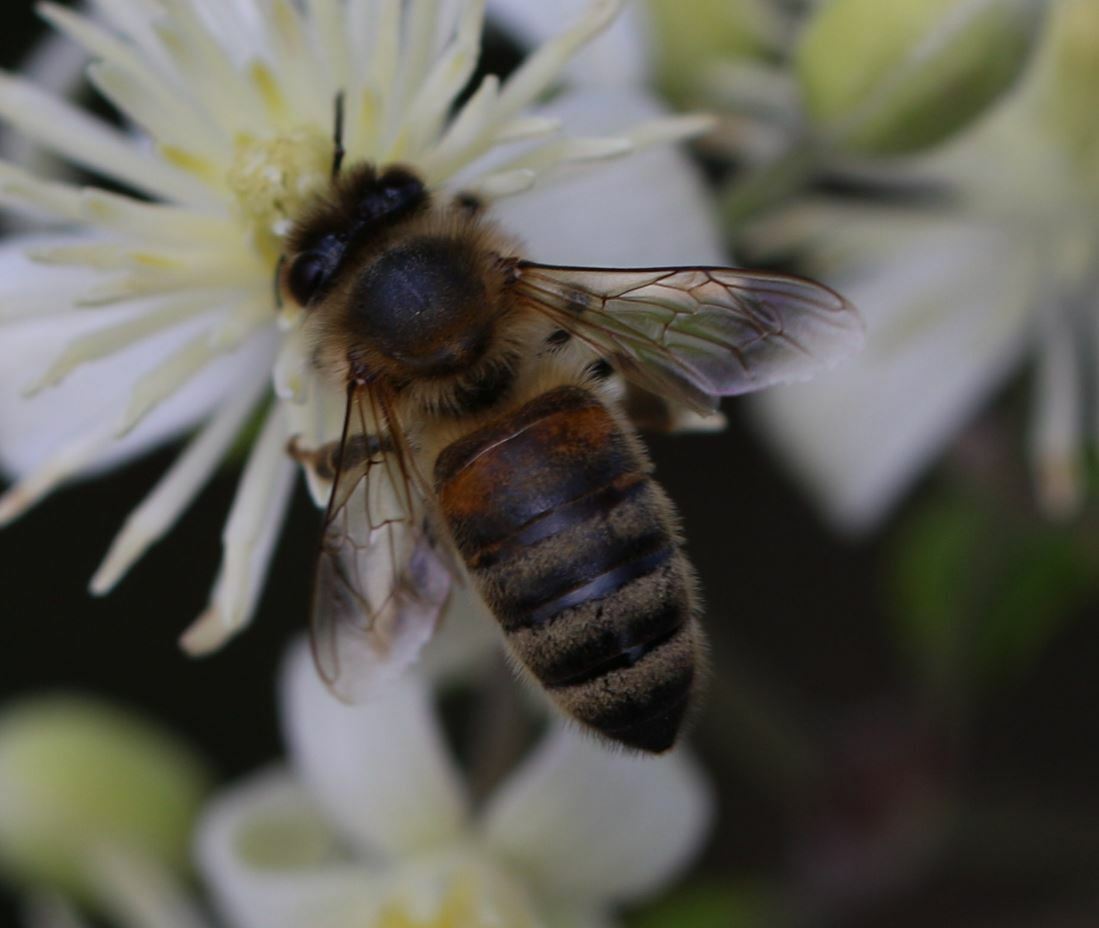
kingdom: Animalia
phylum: Arthropoda
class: Insecta
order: Hymenoptera
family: Apidae
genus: Apis
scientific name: Apis mellifera
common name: Honey bee
